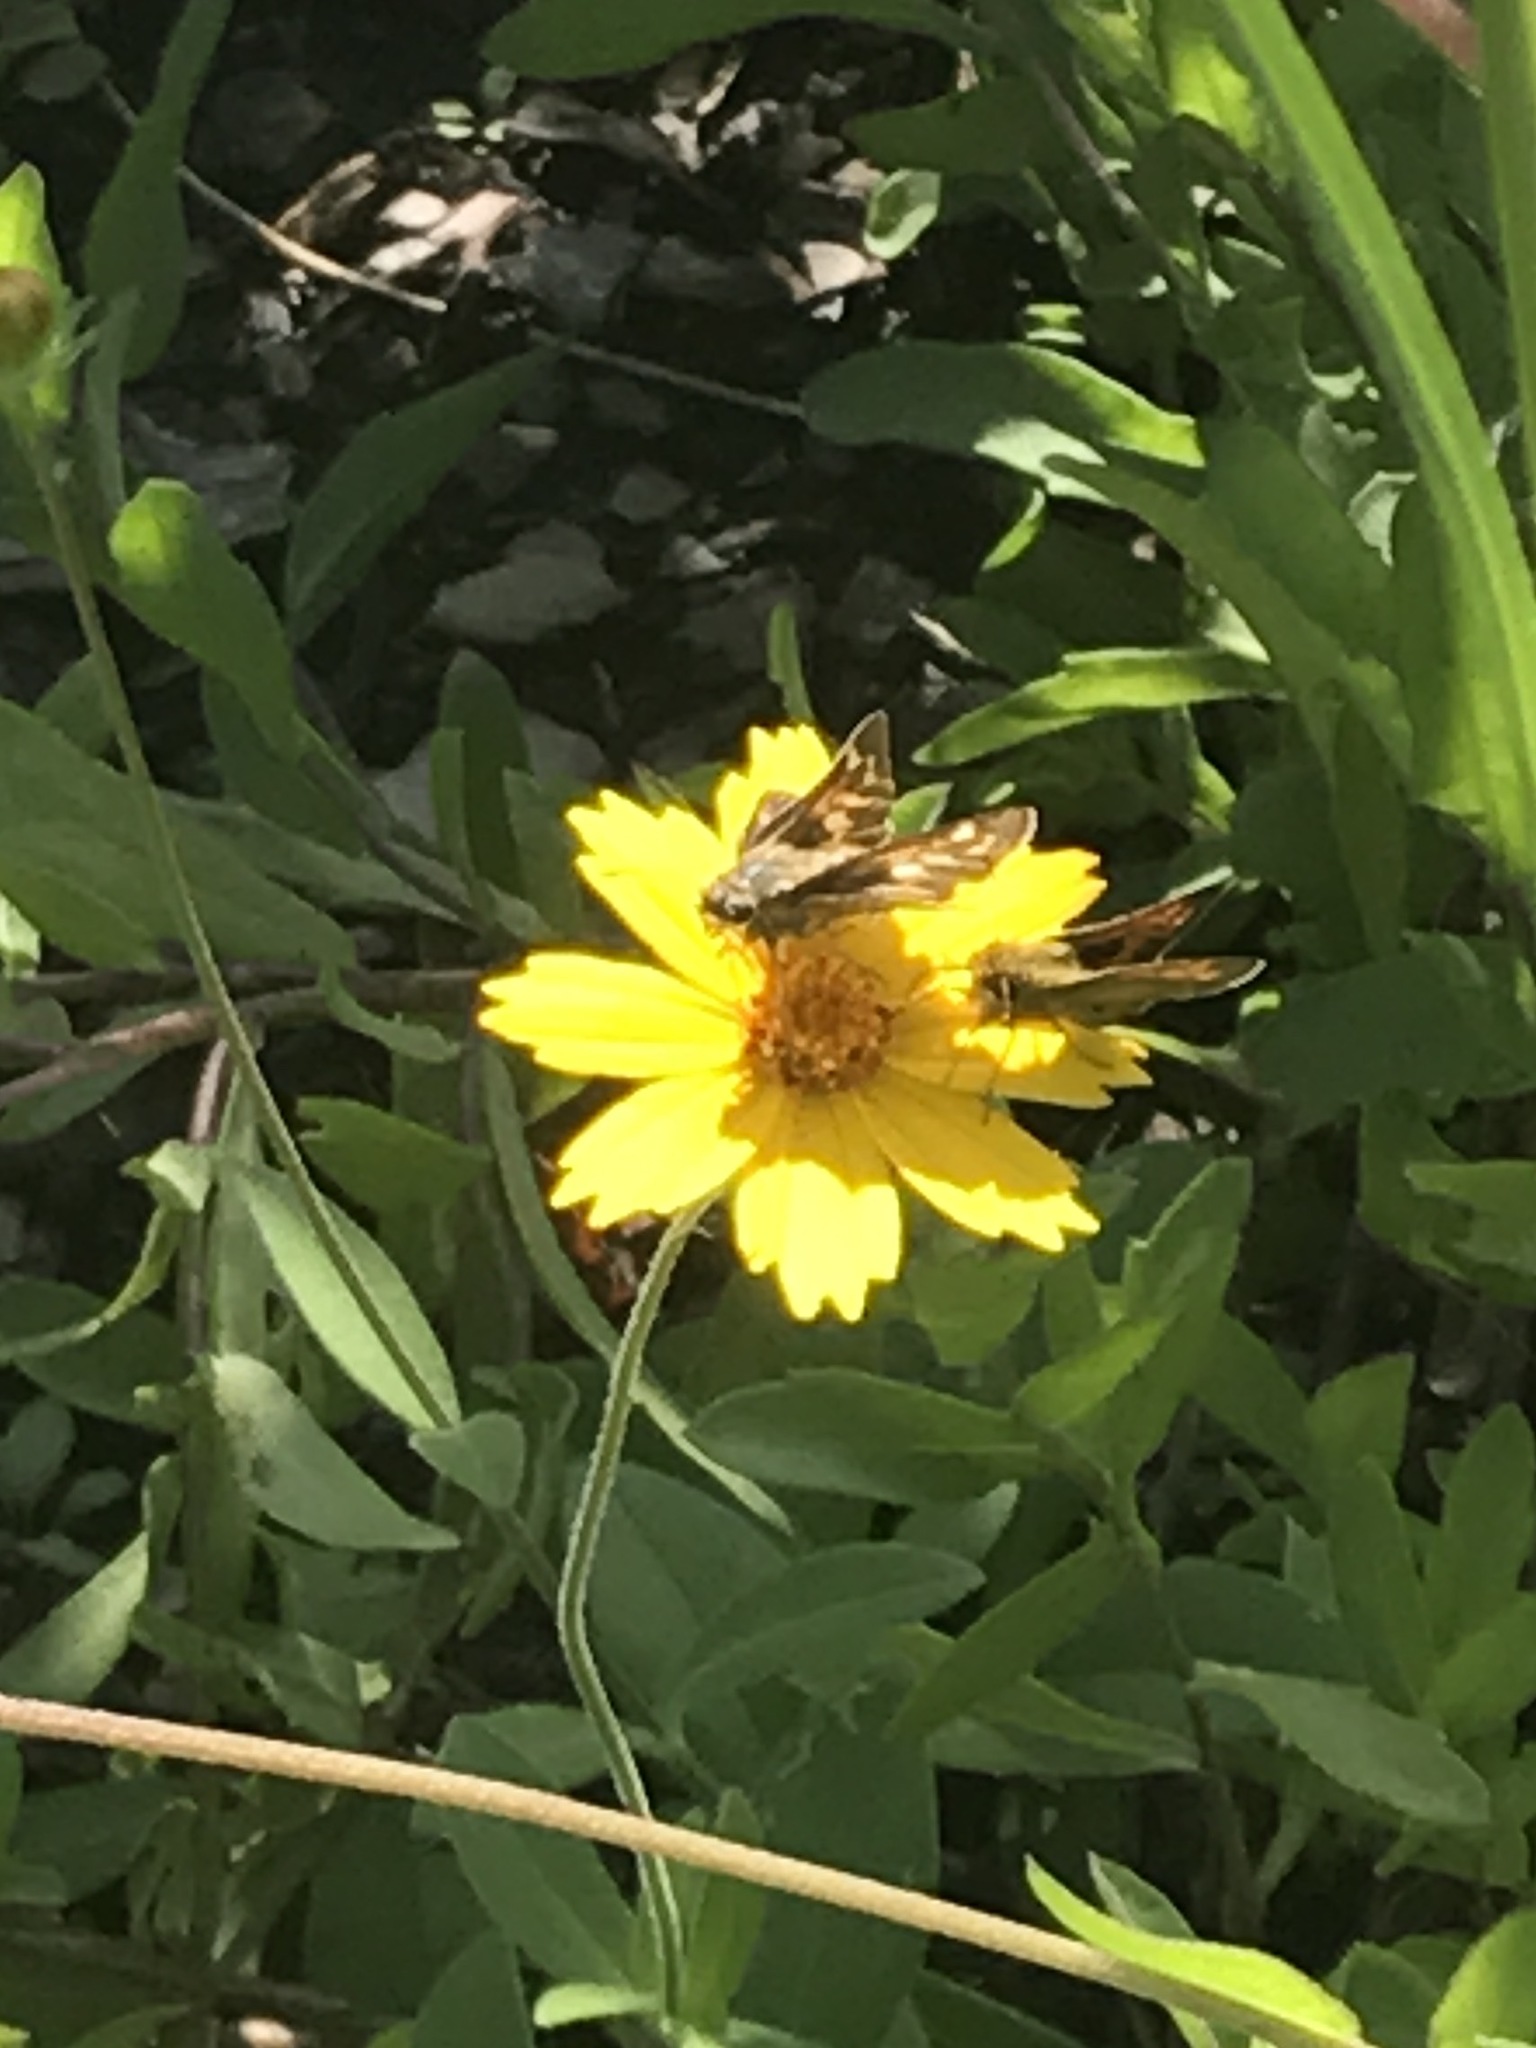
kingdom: Animalia
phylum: Arthropoda
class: Insecta
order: Lepidoptera
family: Hesperiidae
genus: Atalopedes
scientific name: Atalopedes
